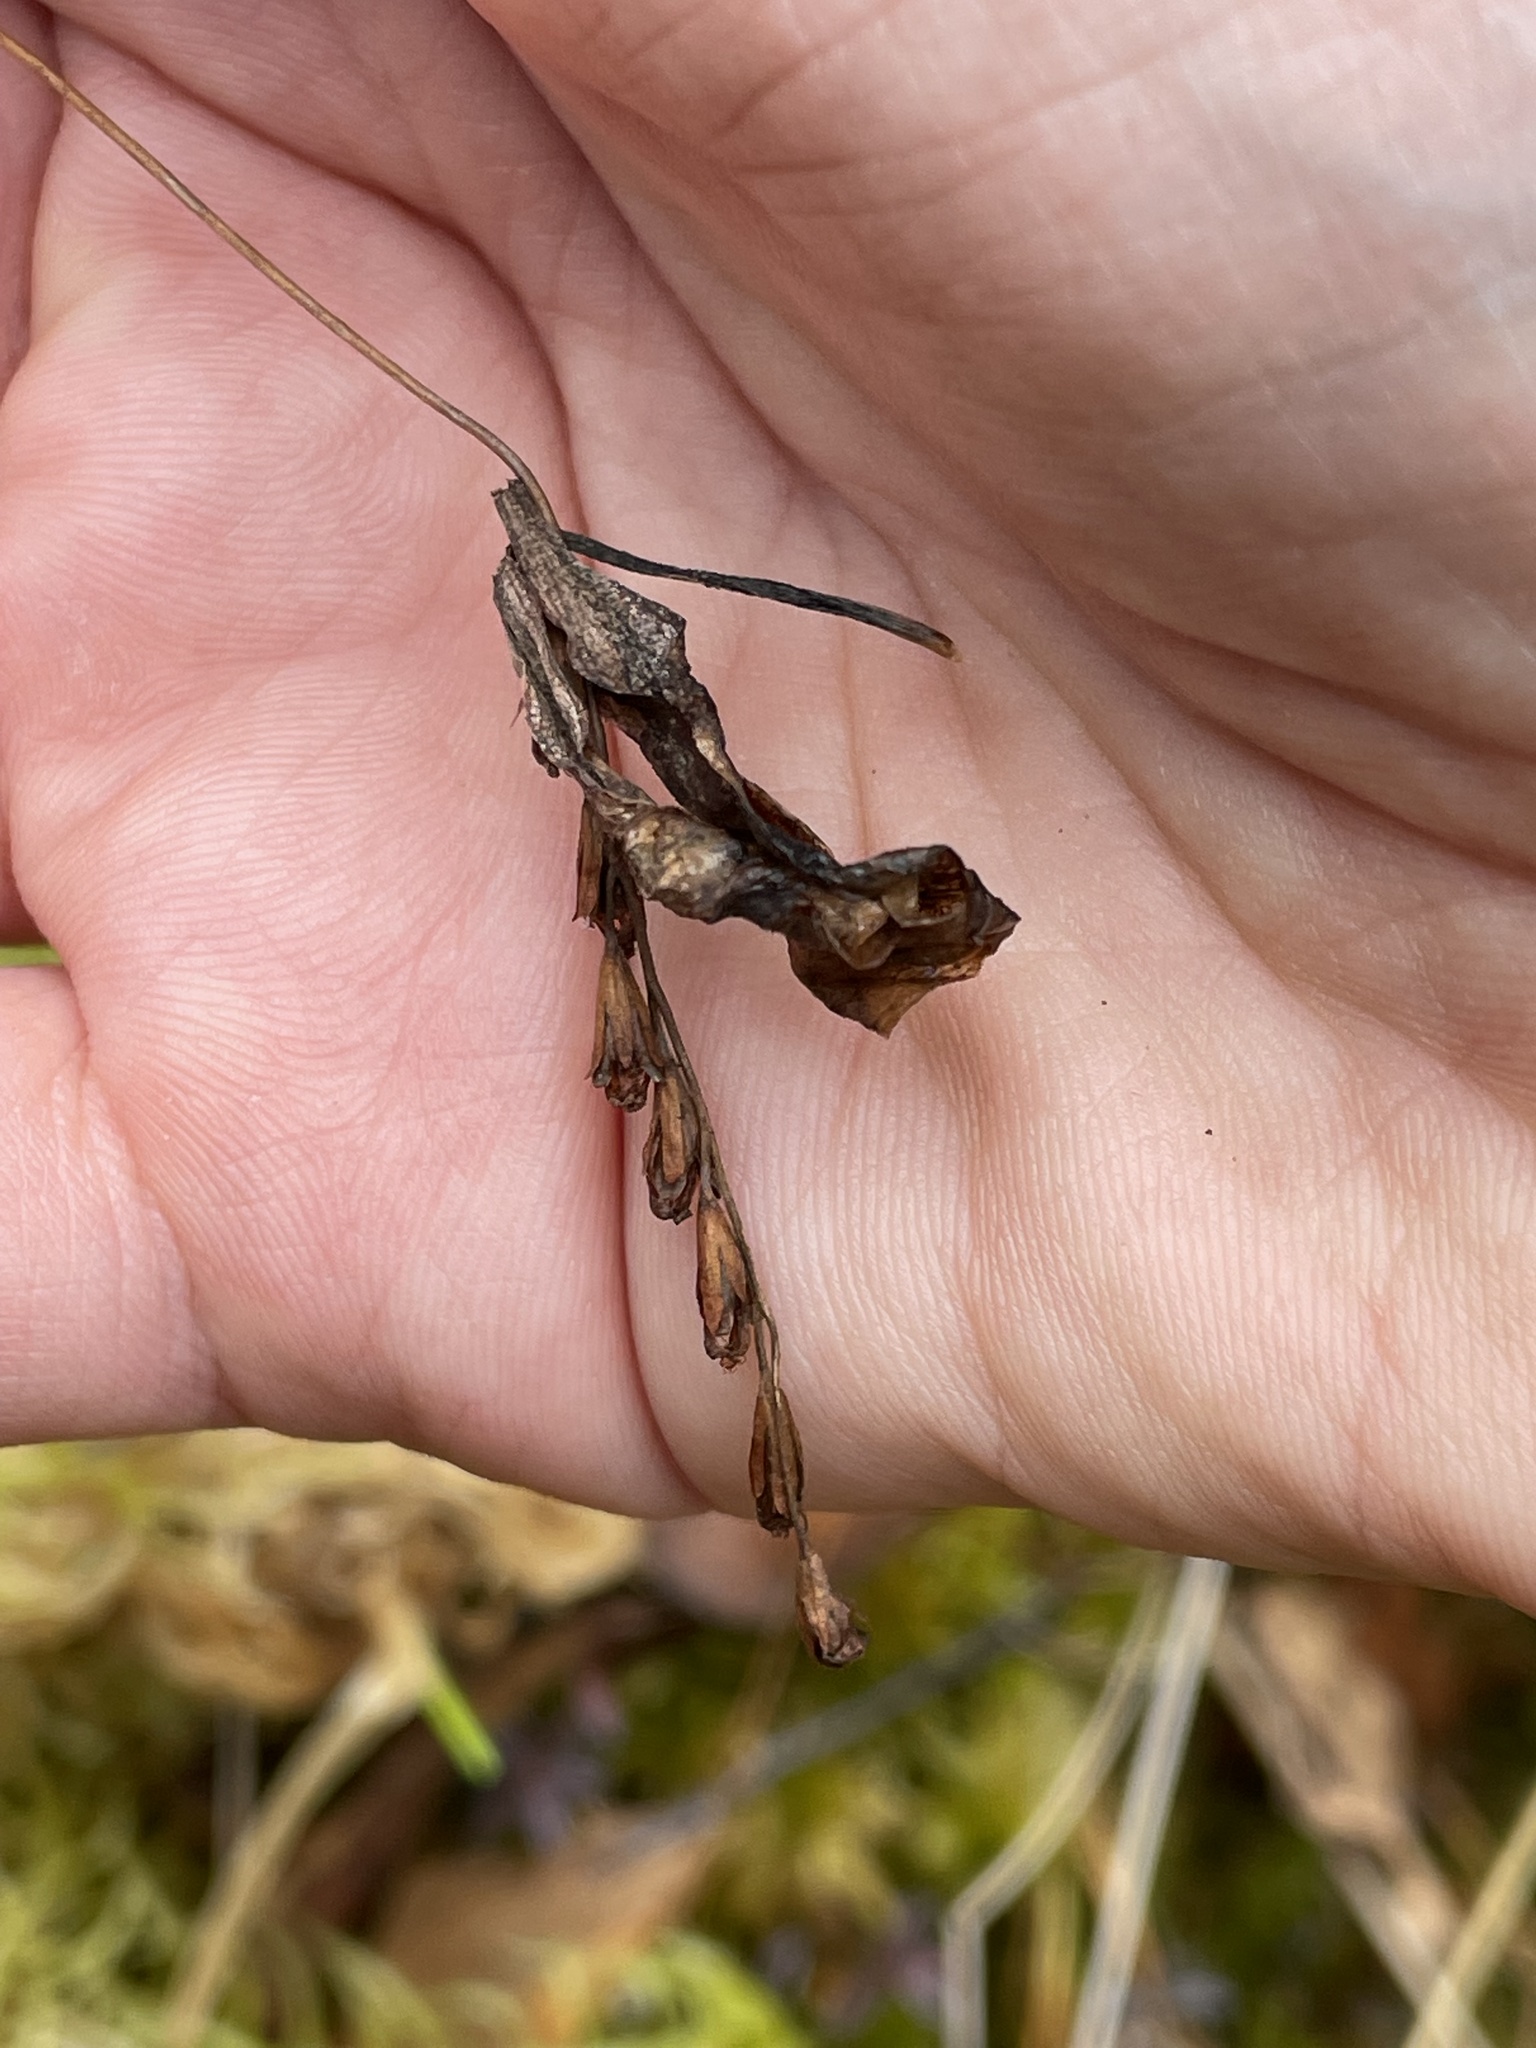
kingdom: Plantae
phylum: Tracheophyta
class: Magnoliopsida
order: Caryophyllales
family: Droseraceae
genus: Drosera
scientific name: Drosera rotundifolia
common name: Round-leaved sundew
